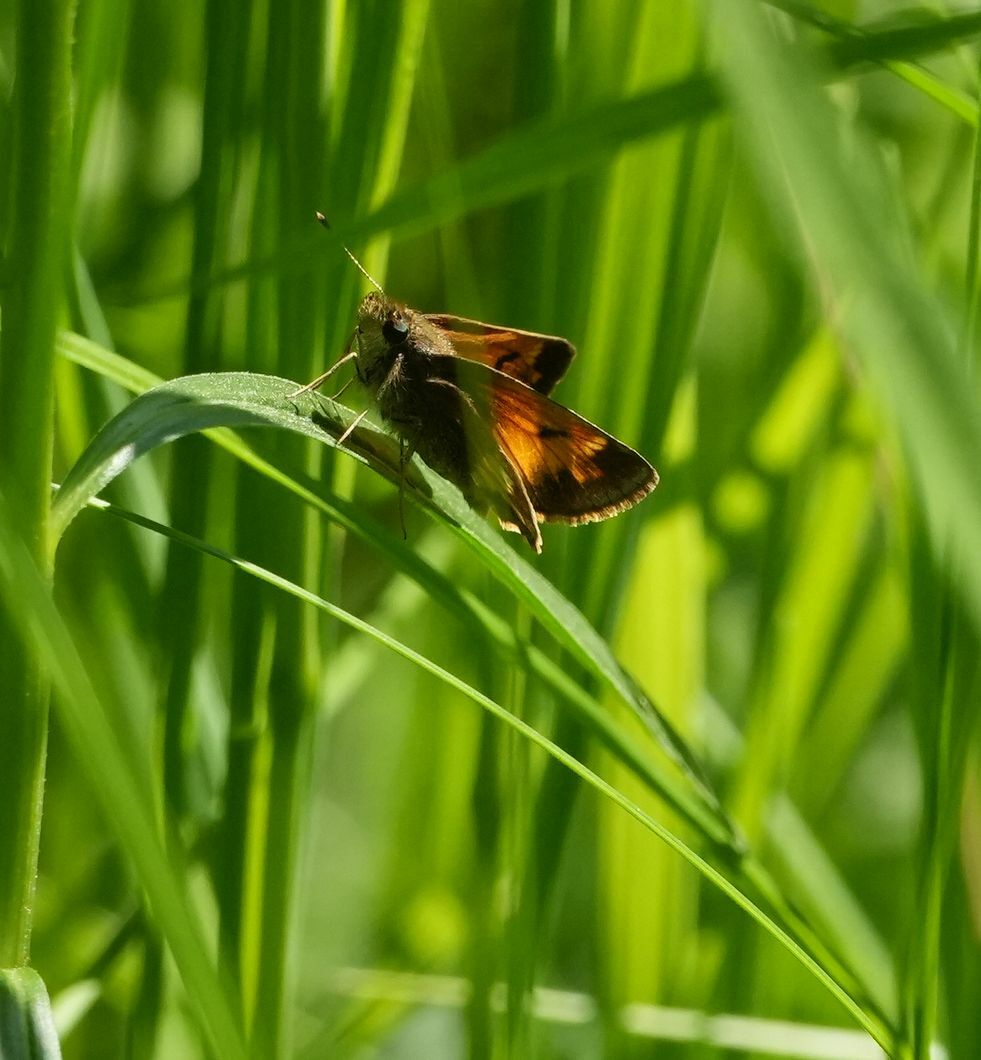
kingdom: Animalia
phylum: Arthropoda
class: Insecta
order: Lepidoptera
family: Hesperiidae
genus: Lon
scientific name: Lon hobomok
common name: Hobomok skipper
